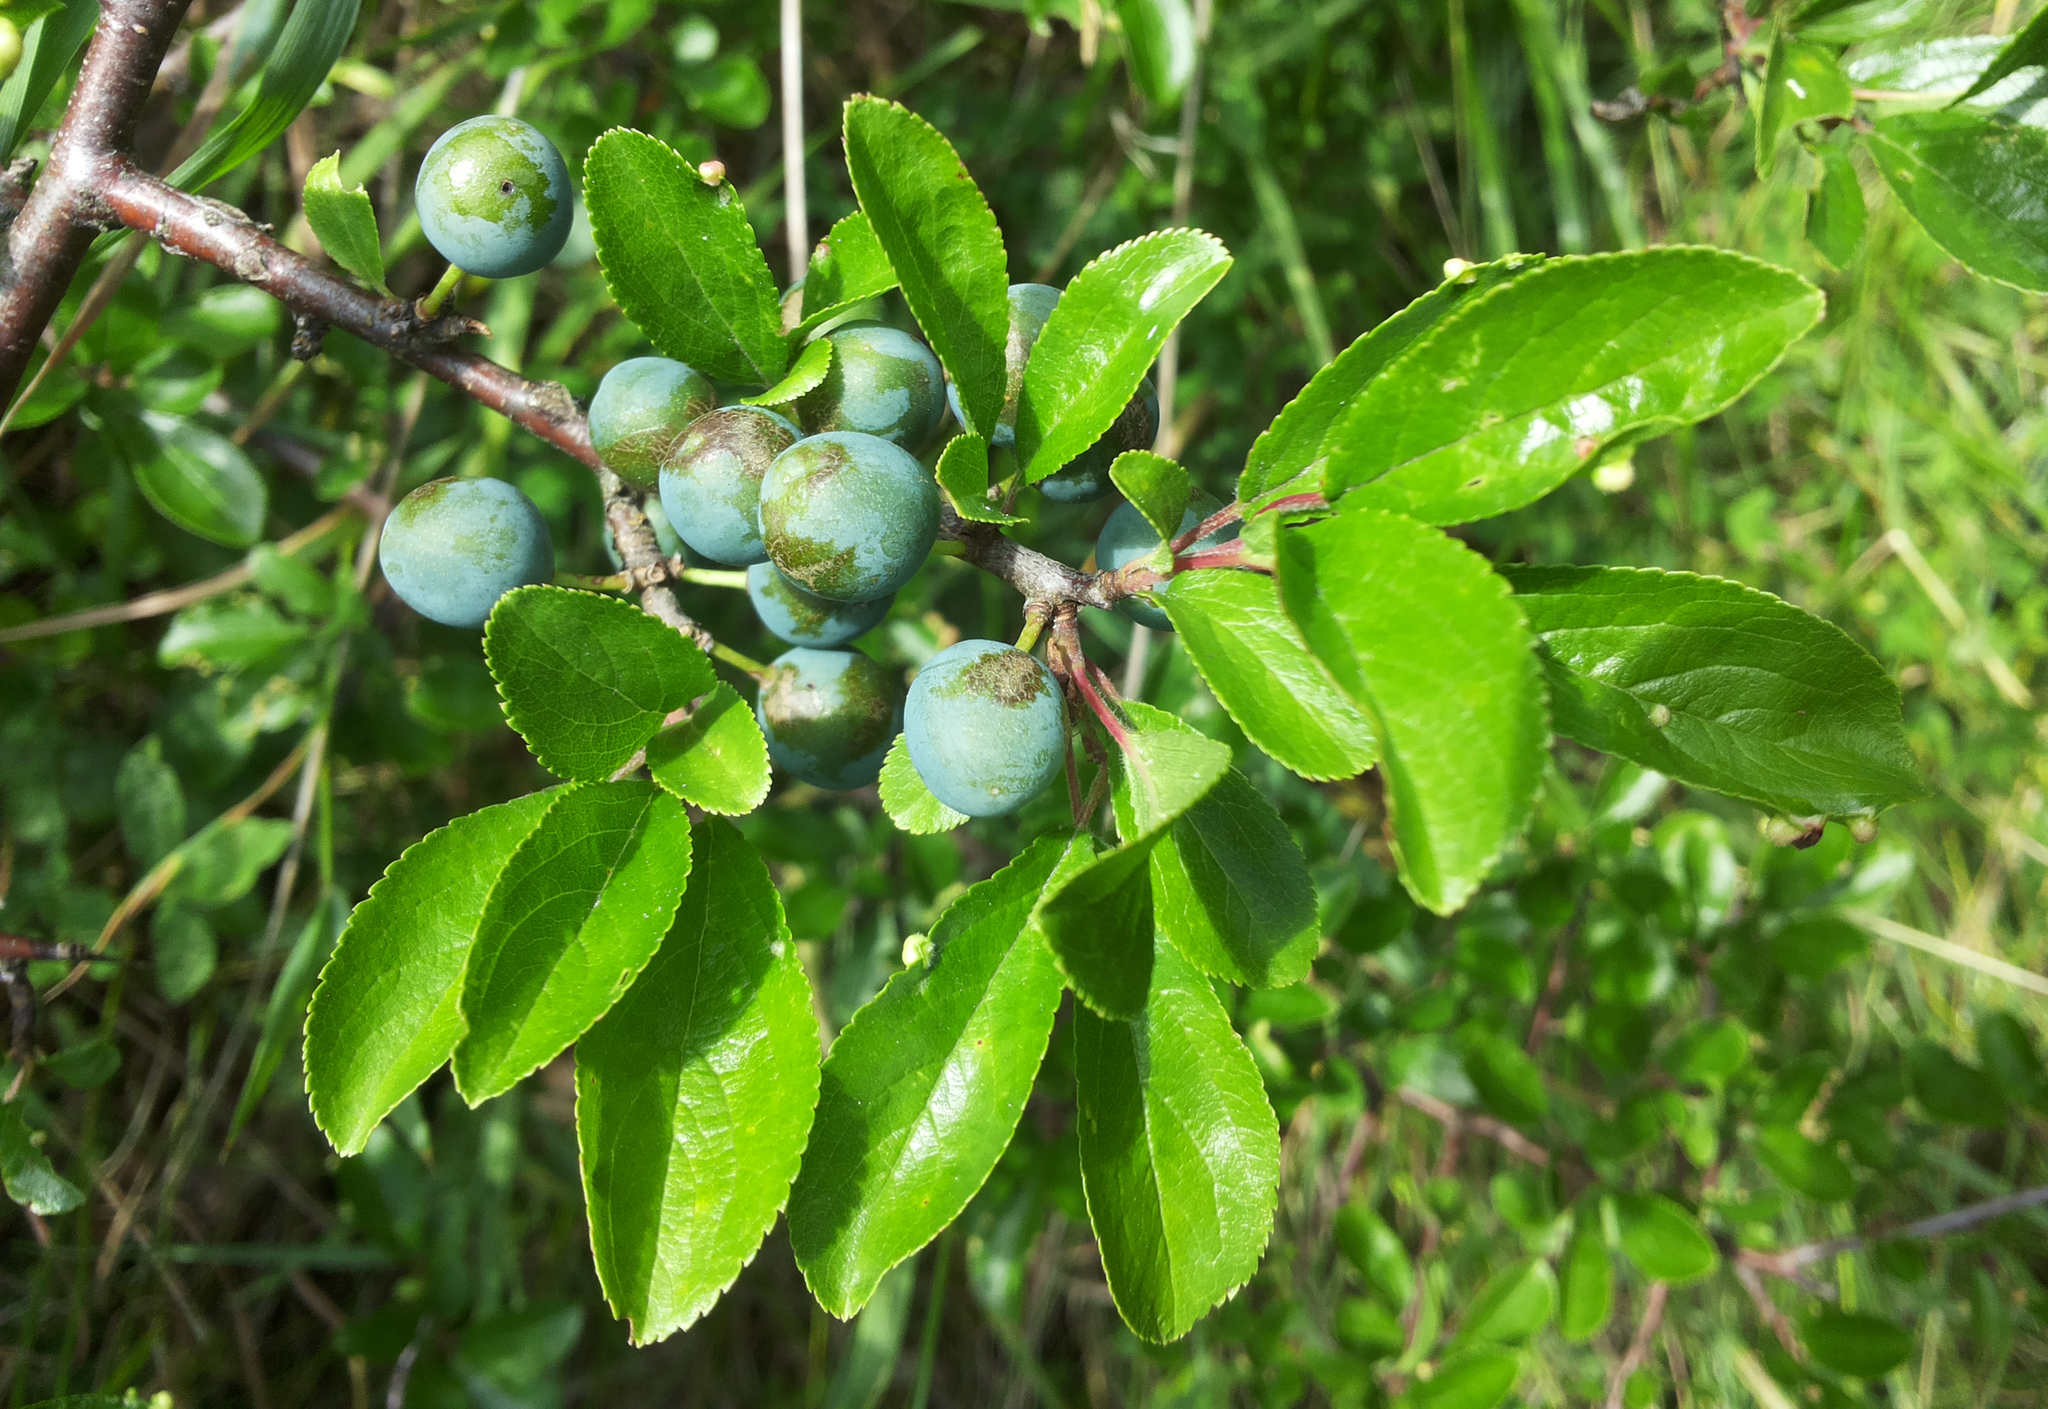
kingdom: Plantae
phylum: Tracheophyta
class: Magnoliopsida
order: Rosales
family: Rosaceae
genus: Prunus
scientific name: Prunus spinosa
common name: Blackthorn
